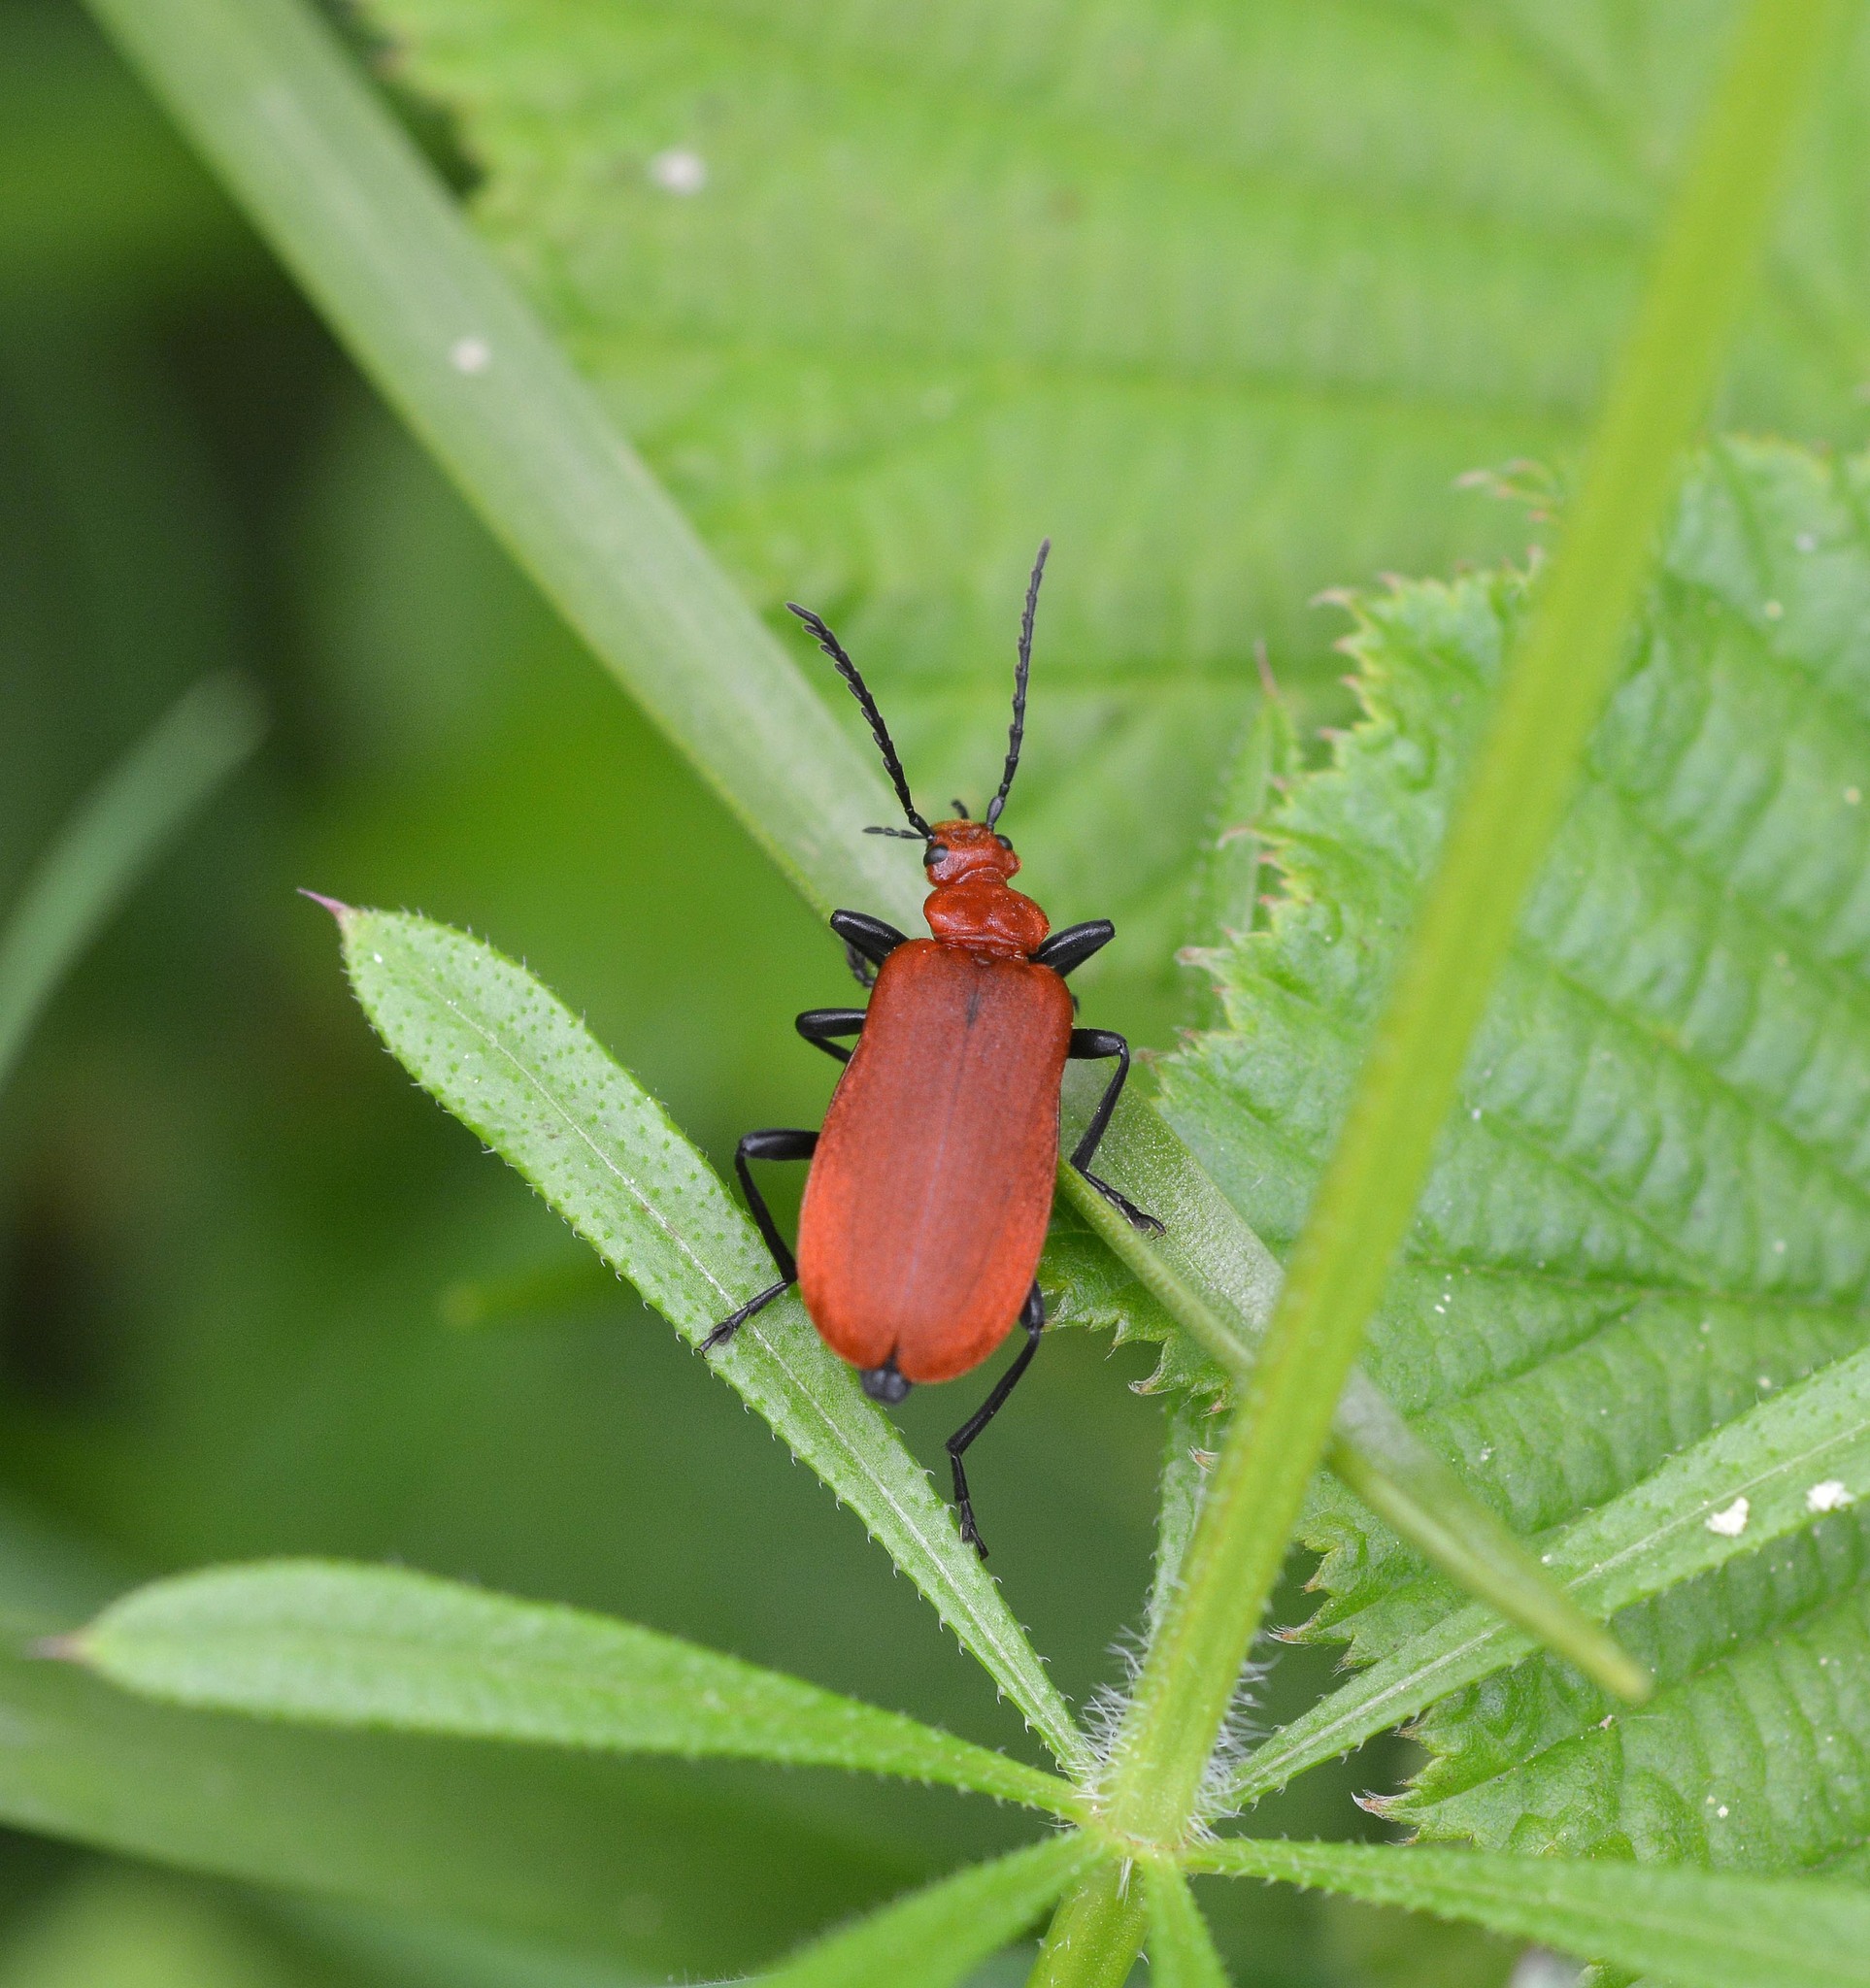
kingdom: Animalia
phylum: Arthropoda
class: Insecta
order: Coleoptera
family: Pyrochroidae
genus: Pyrochroa
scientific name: Pyrochroa serraticornis
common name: Red-headed cardinal beetle
